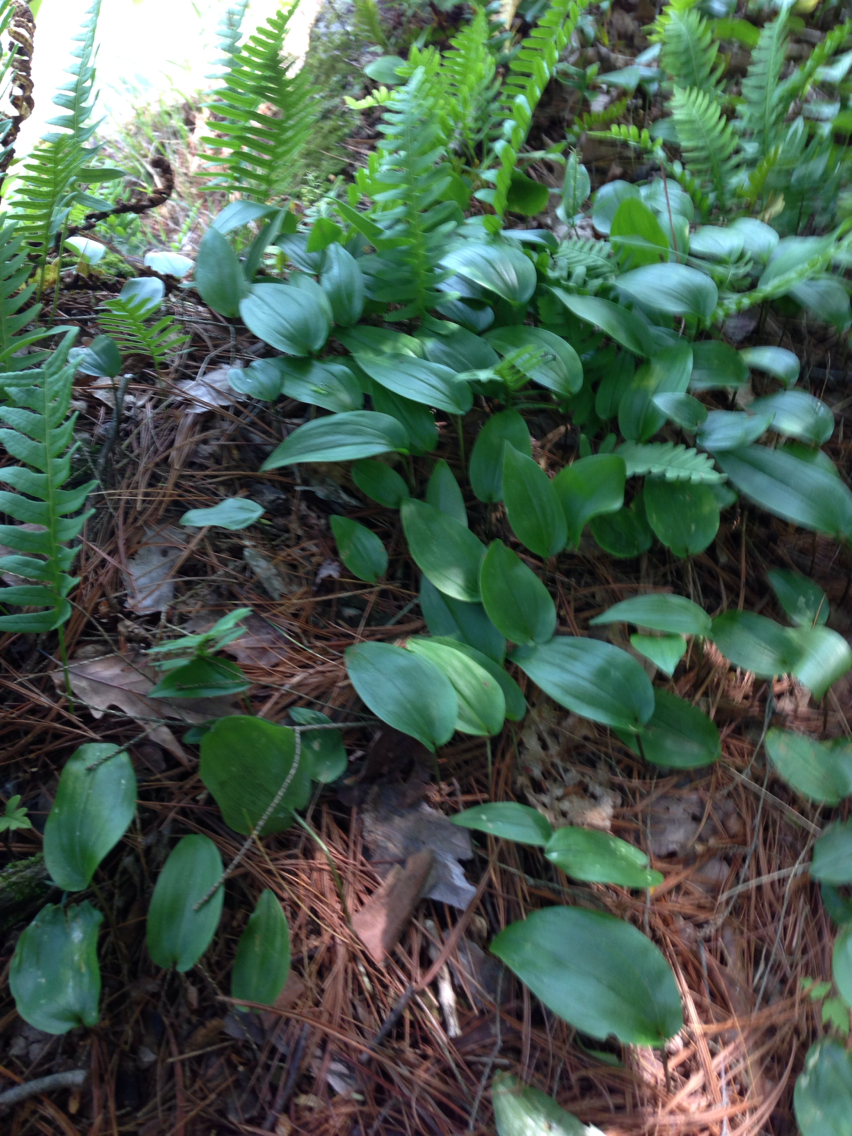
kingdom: Plantae
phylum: Tracheophyta
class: Liliopsida
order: Asparagales
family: Asparagaceae
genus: Maianthemum
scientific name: Maianthemum canadense
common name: False lily-of-the-valley
